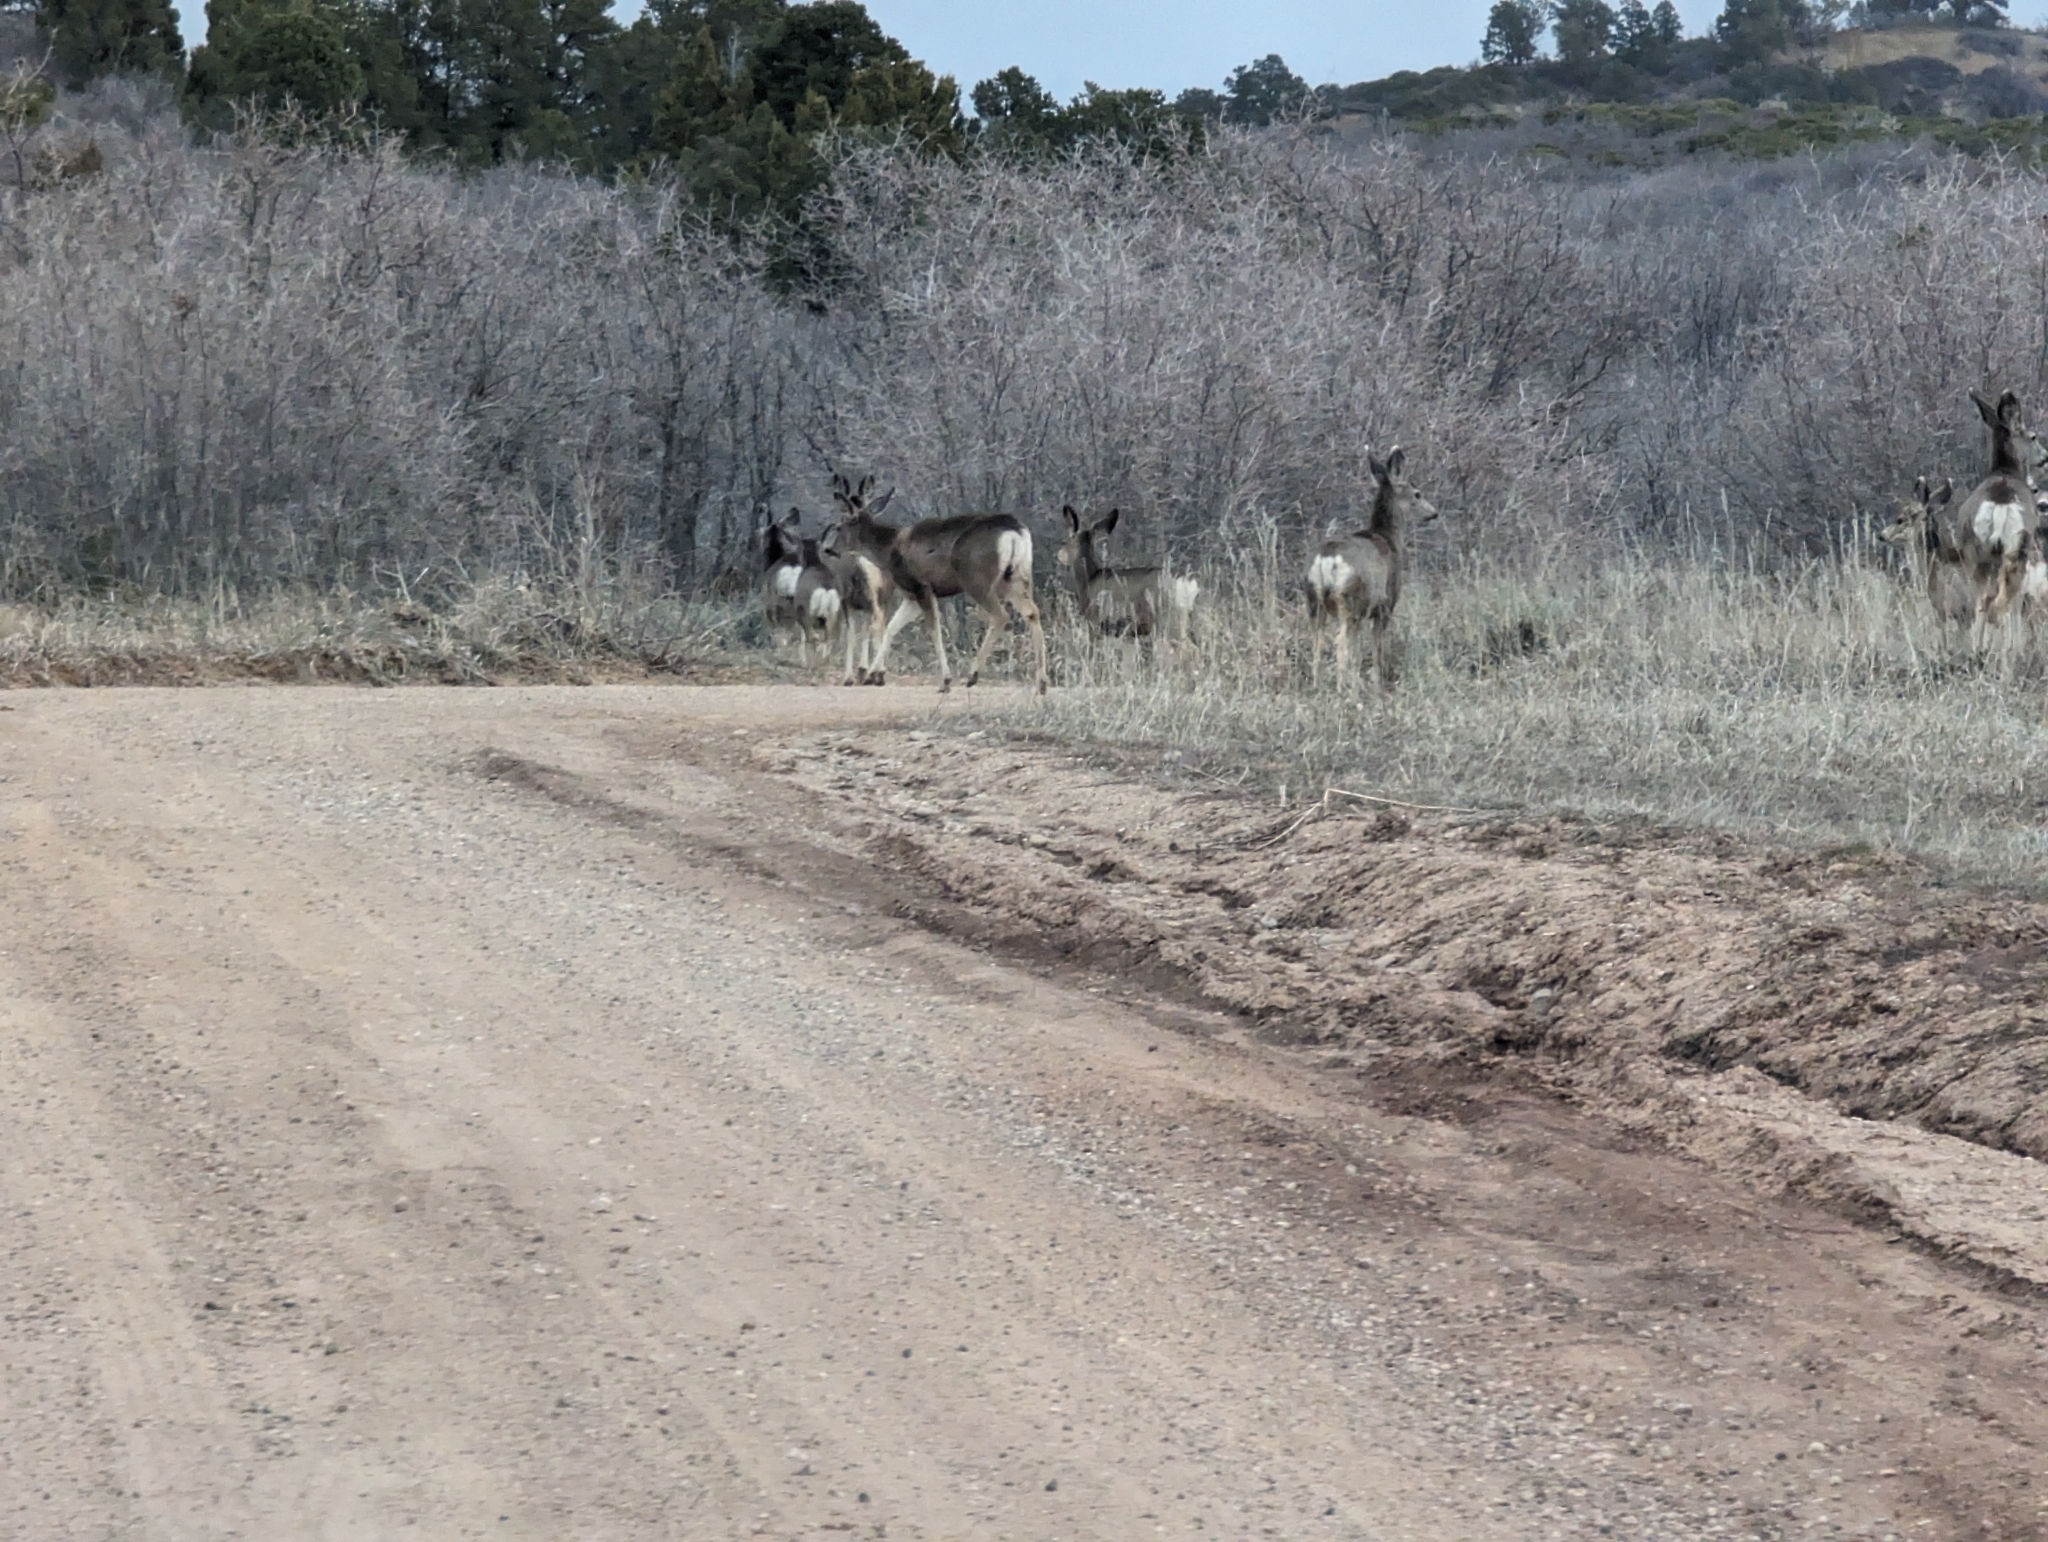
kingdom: Animalia
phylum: Chordata
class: Mammalia
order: Artiodactyla
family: Cervidae
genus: Odocoileus
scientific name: Odocoileus hemionus
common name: Mule deer
